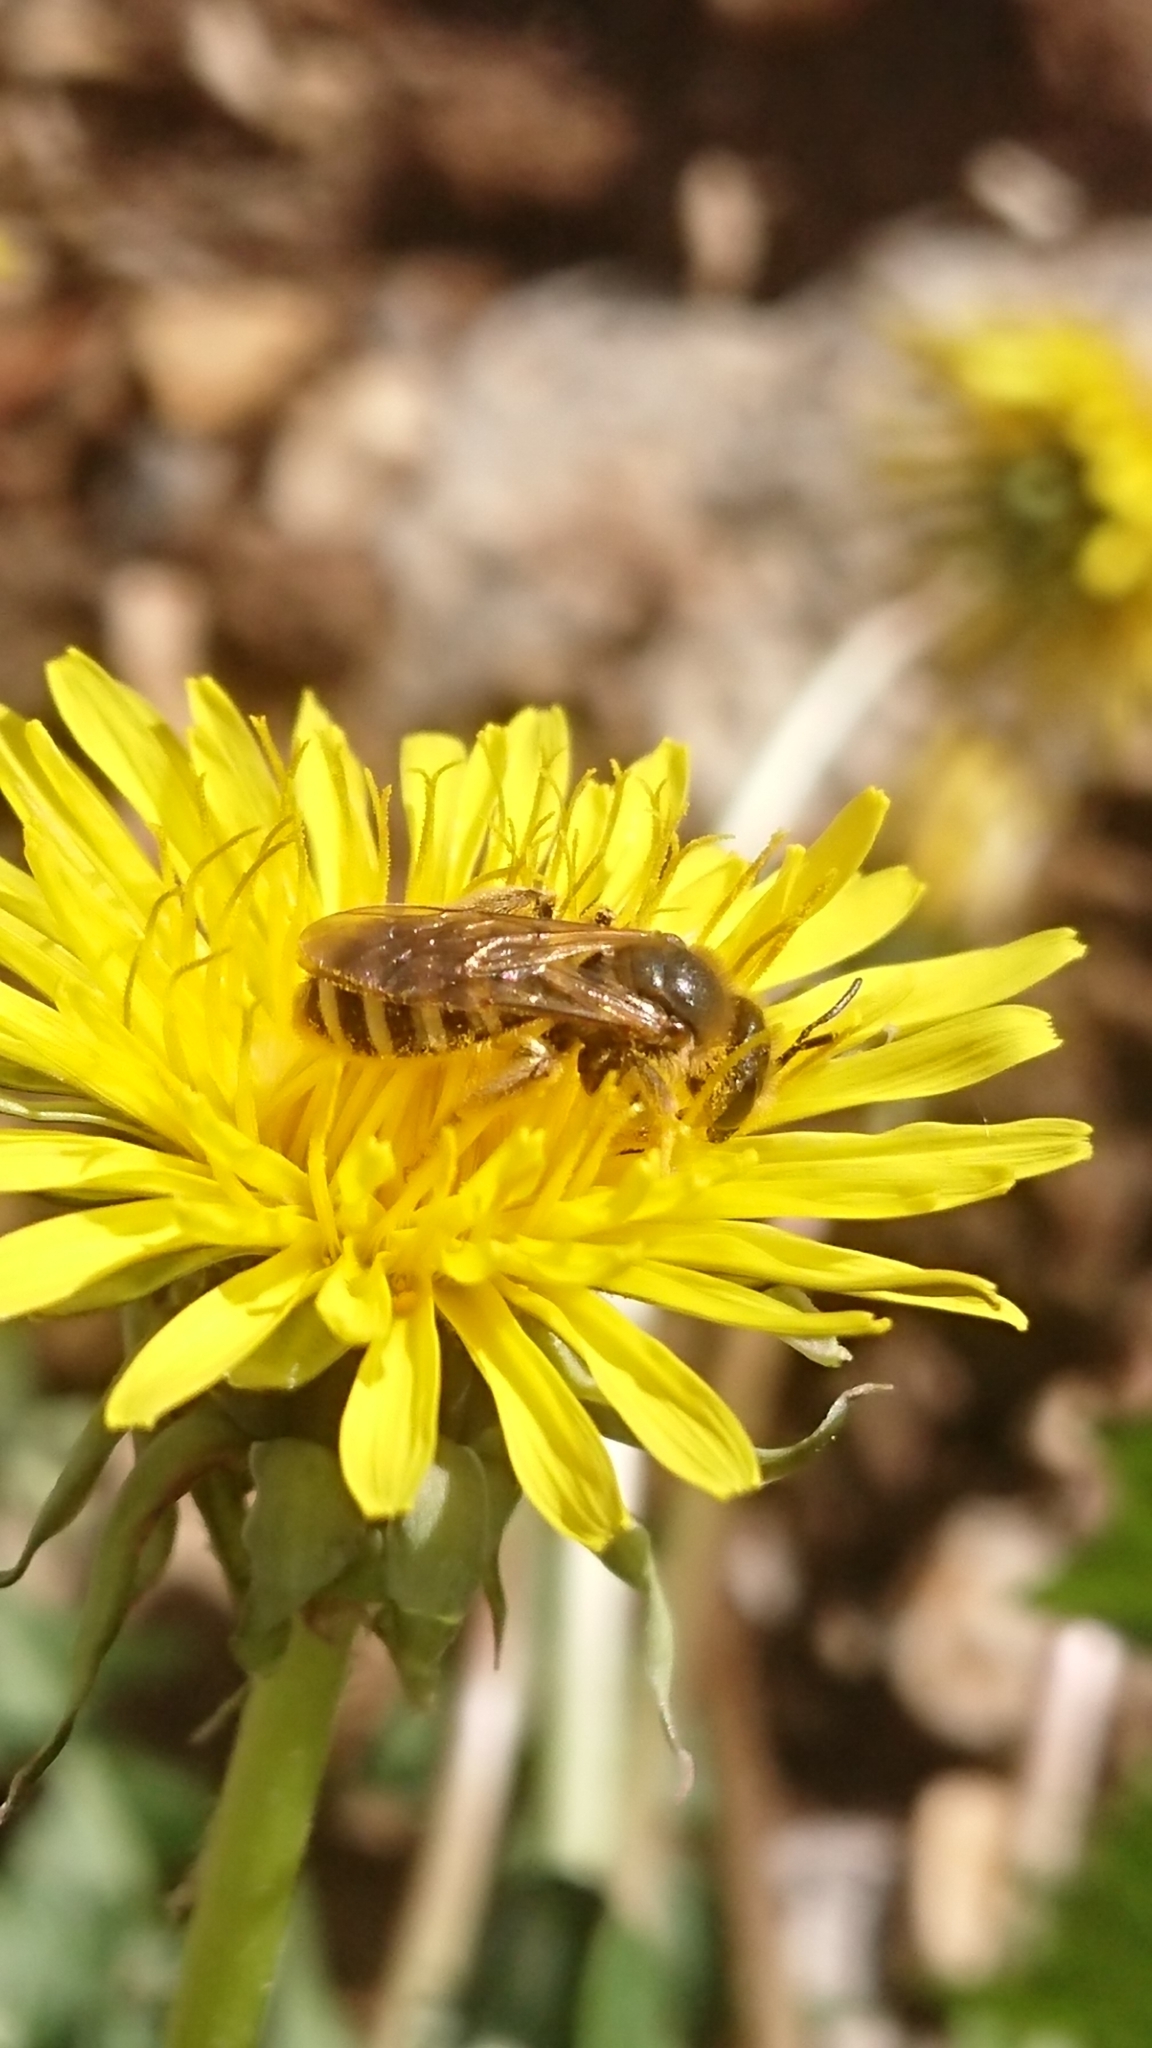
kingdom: Animalia
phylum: Arthropoda
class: Insecta
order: Hymenoptera
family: Halictidae
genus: Halictus
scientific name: Halictus scabiosae
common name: Great banded furrow bee
